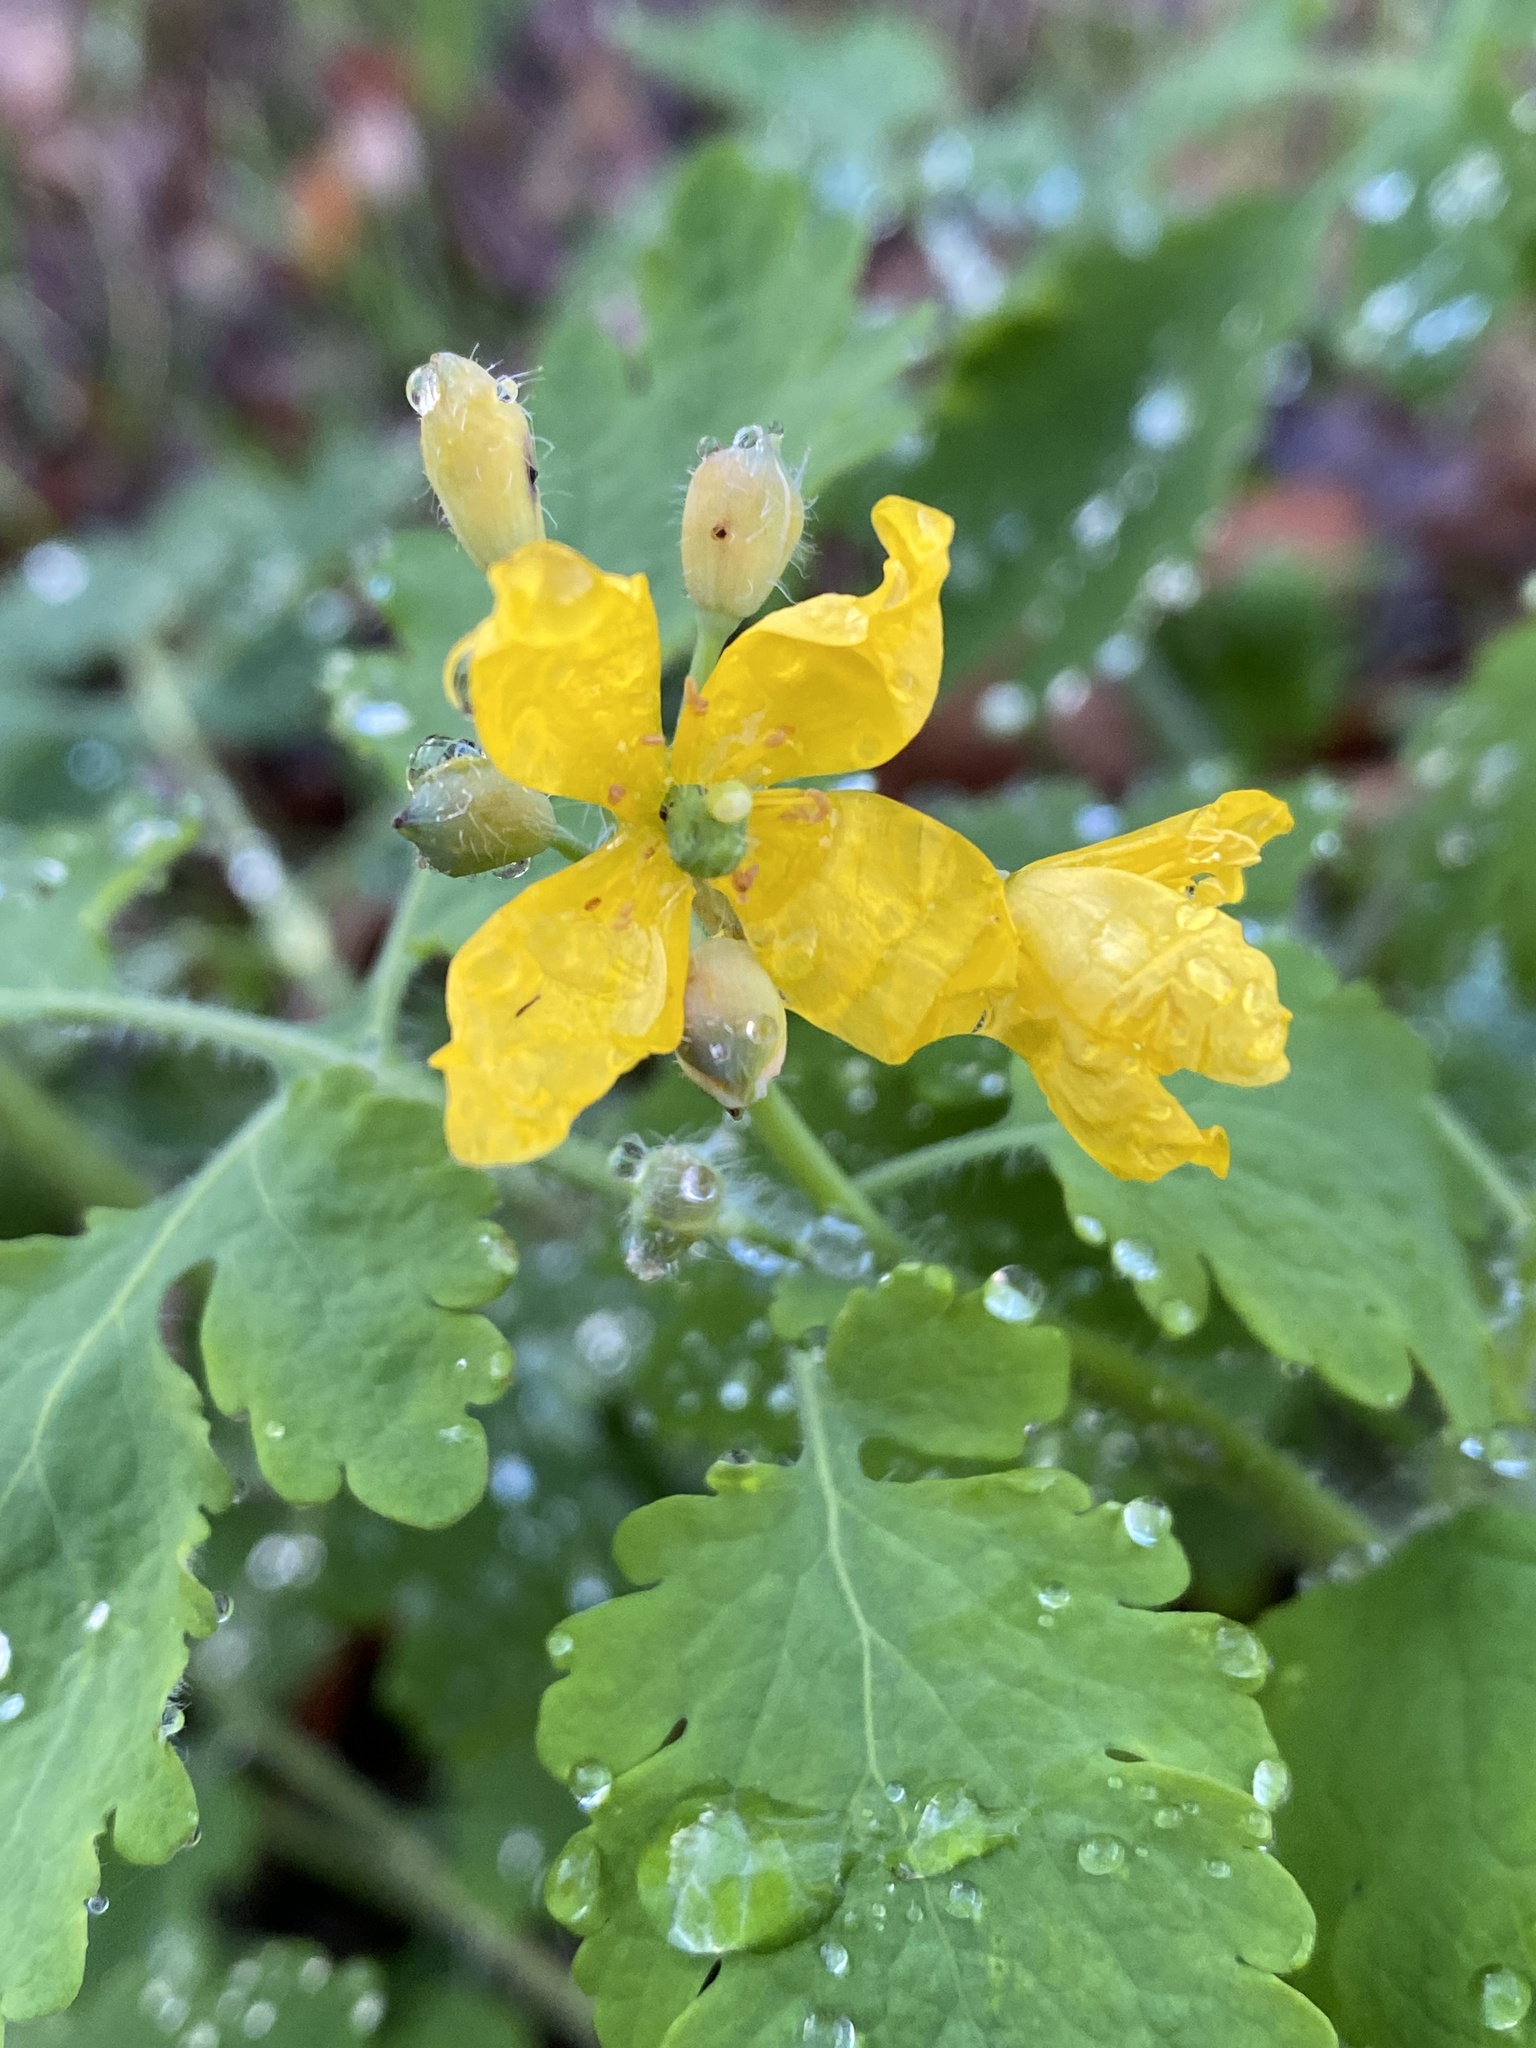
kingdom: Plantae
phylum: Tracheophyta
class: Magnoliopsida
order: Ranunculales
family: Papaveraceae
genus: Chelidonium
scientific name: Chelidonium majus
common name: Greater celandine
